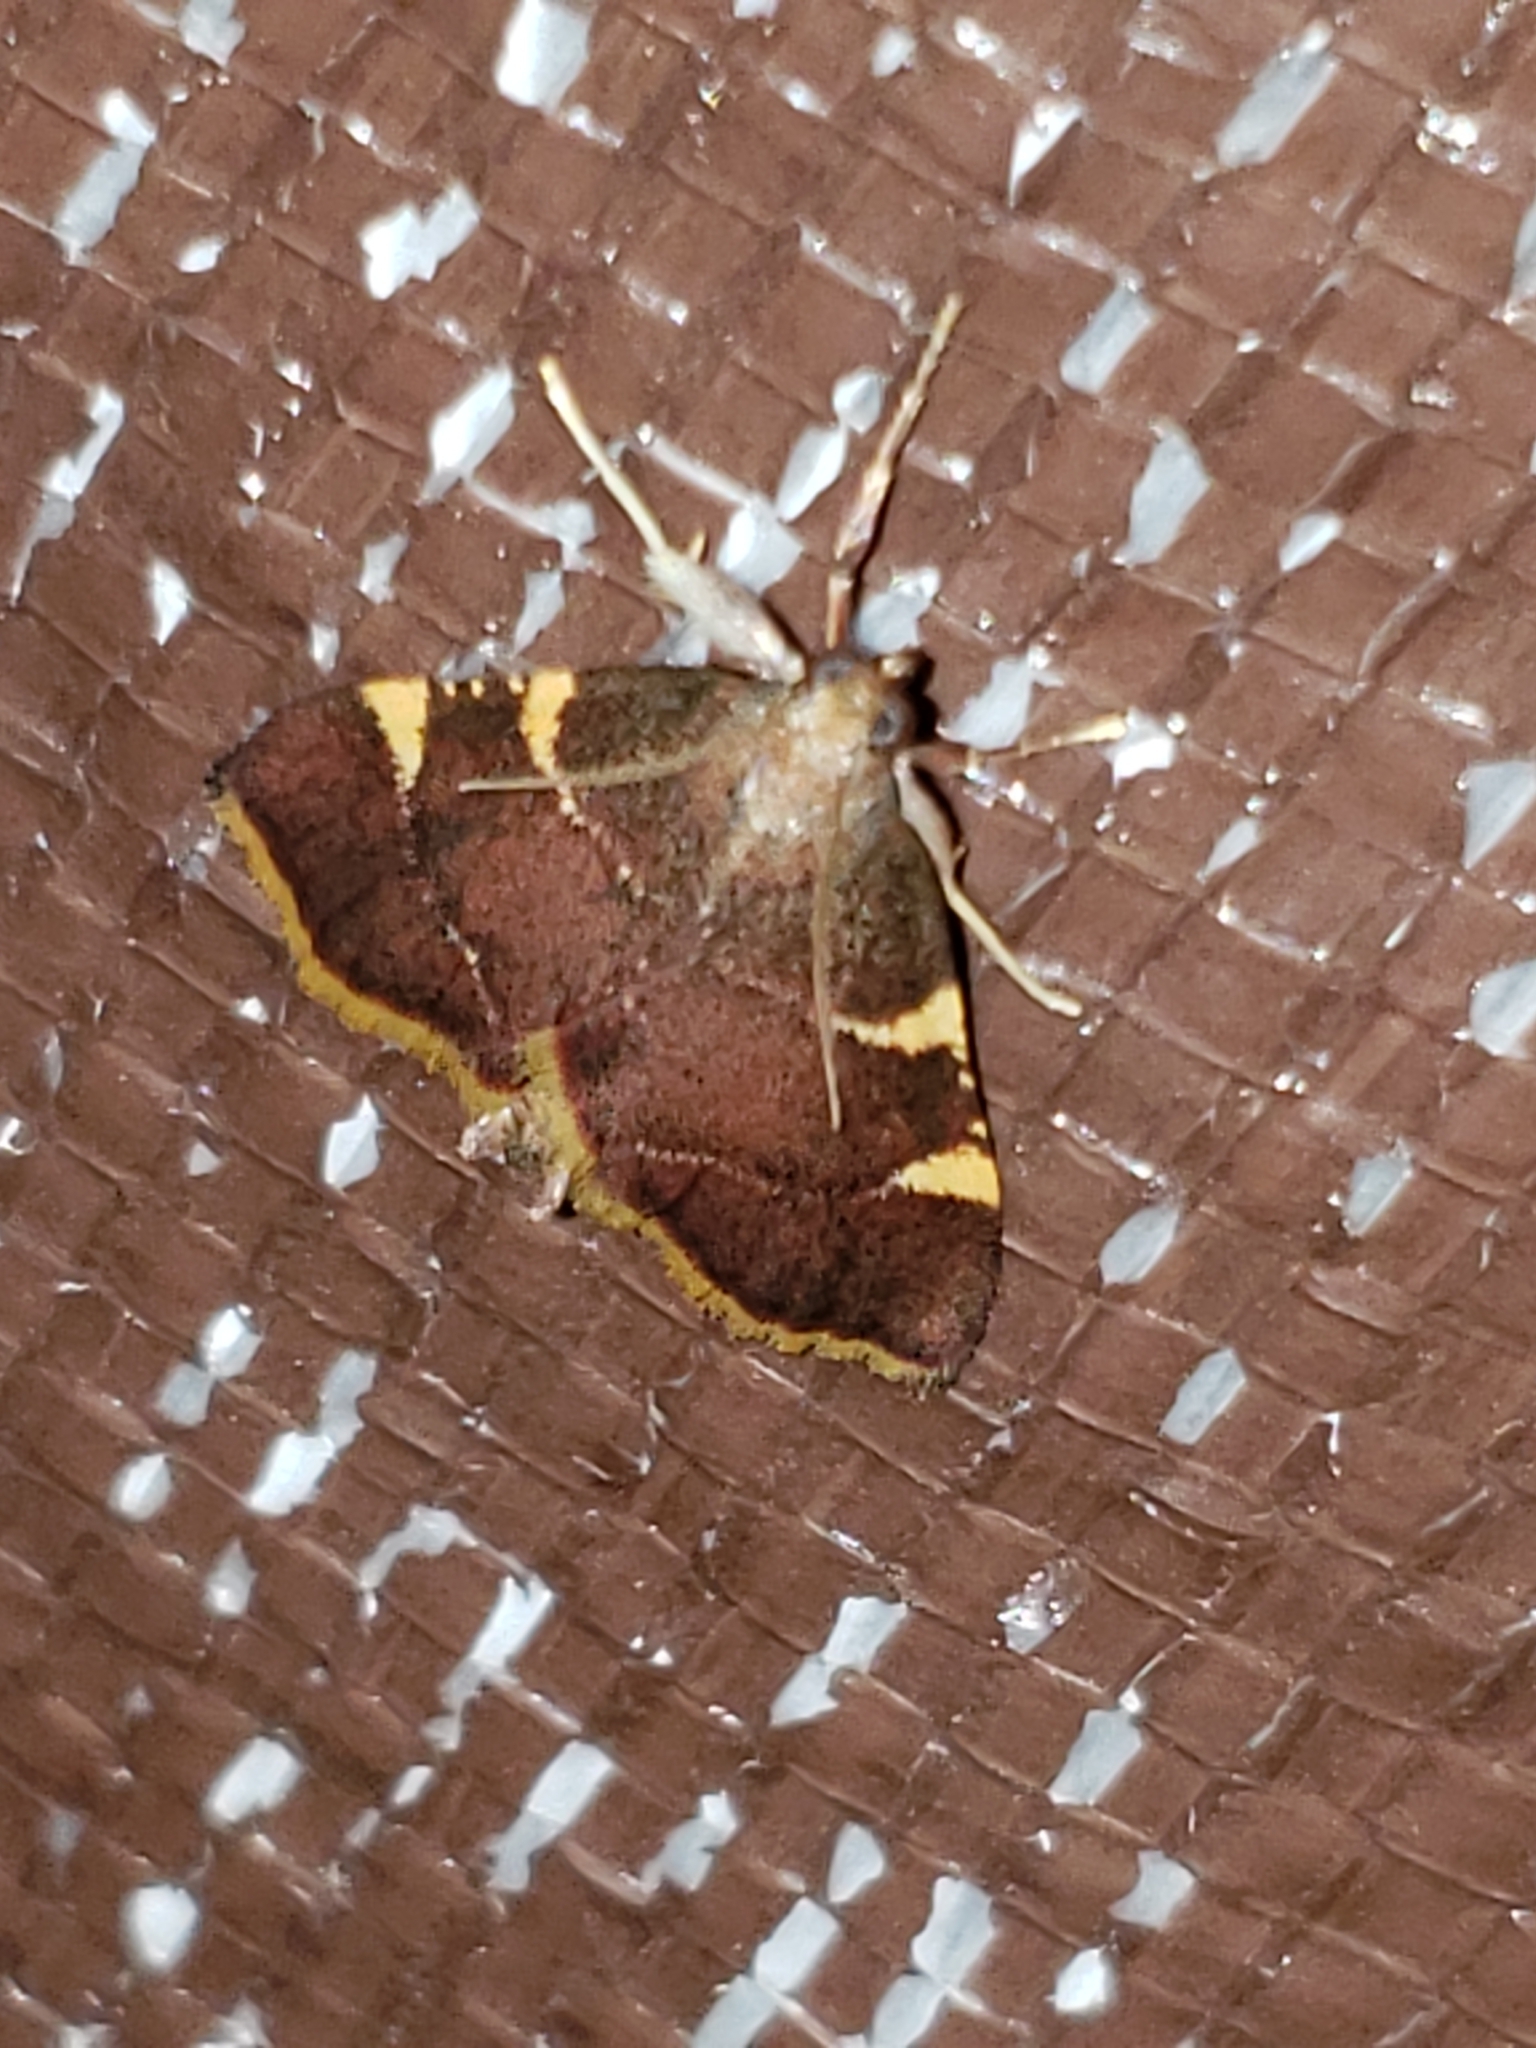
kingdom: Animalia
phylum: Arthropoda
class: Insecta
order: Lepidoptera
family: Pyralidae
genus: Hypsopygia
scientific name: Hypsopygia olinalis
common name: Yellow-fringed dolichomia moth
